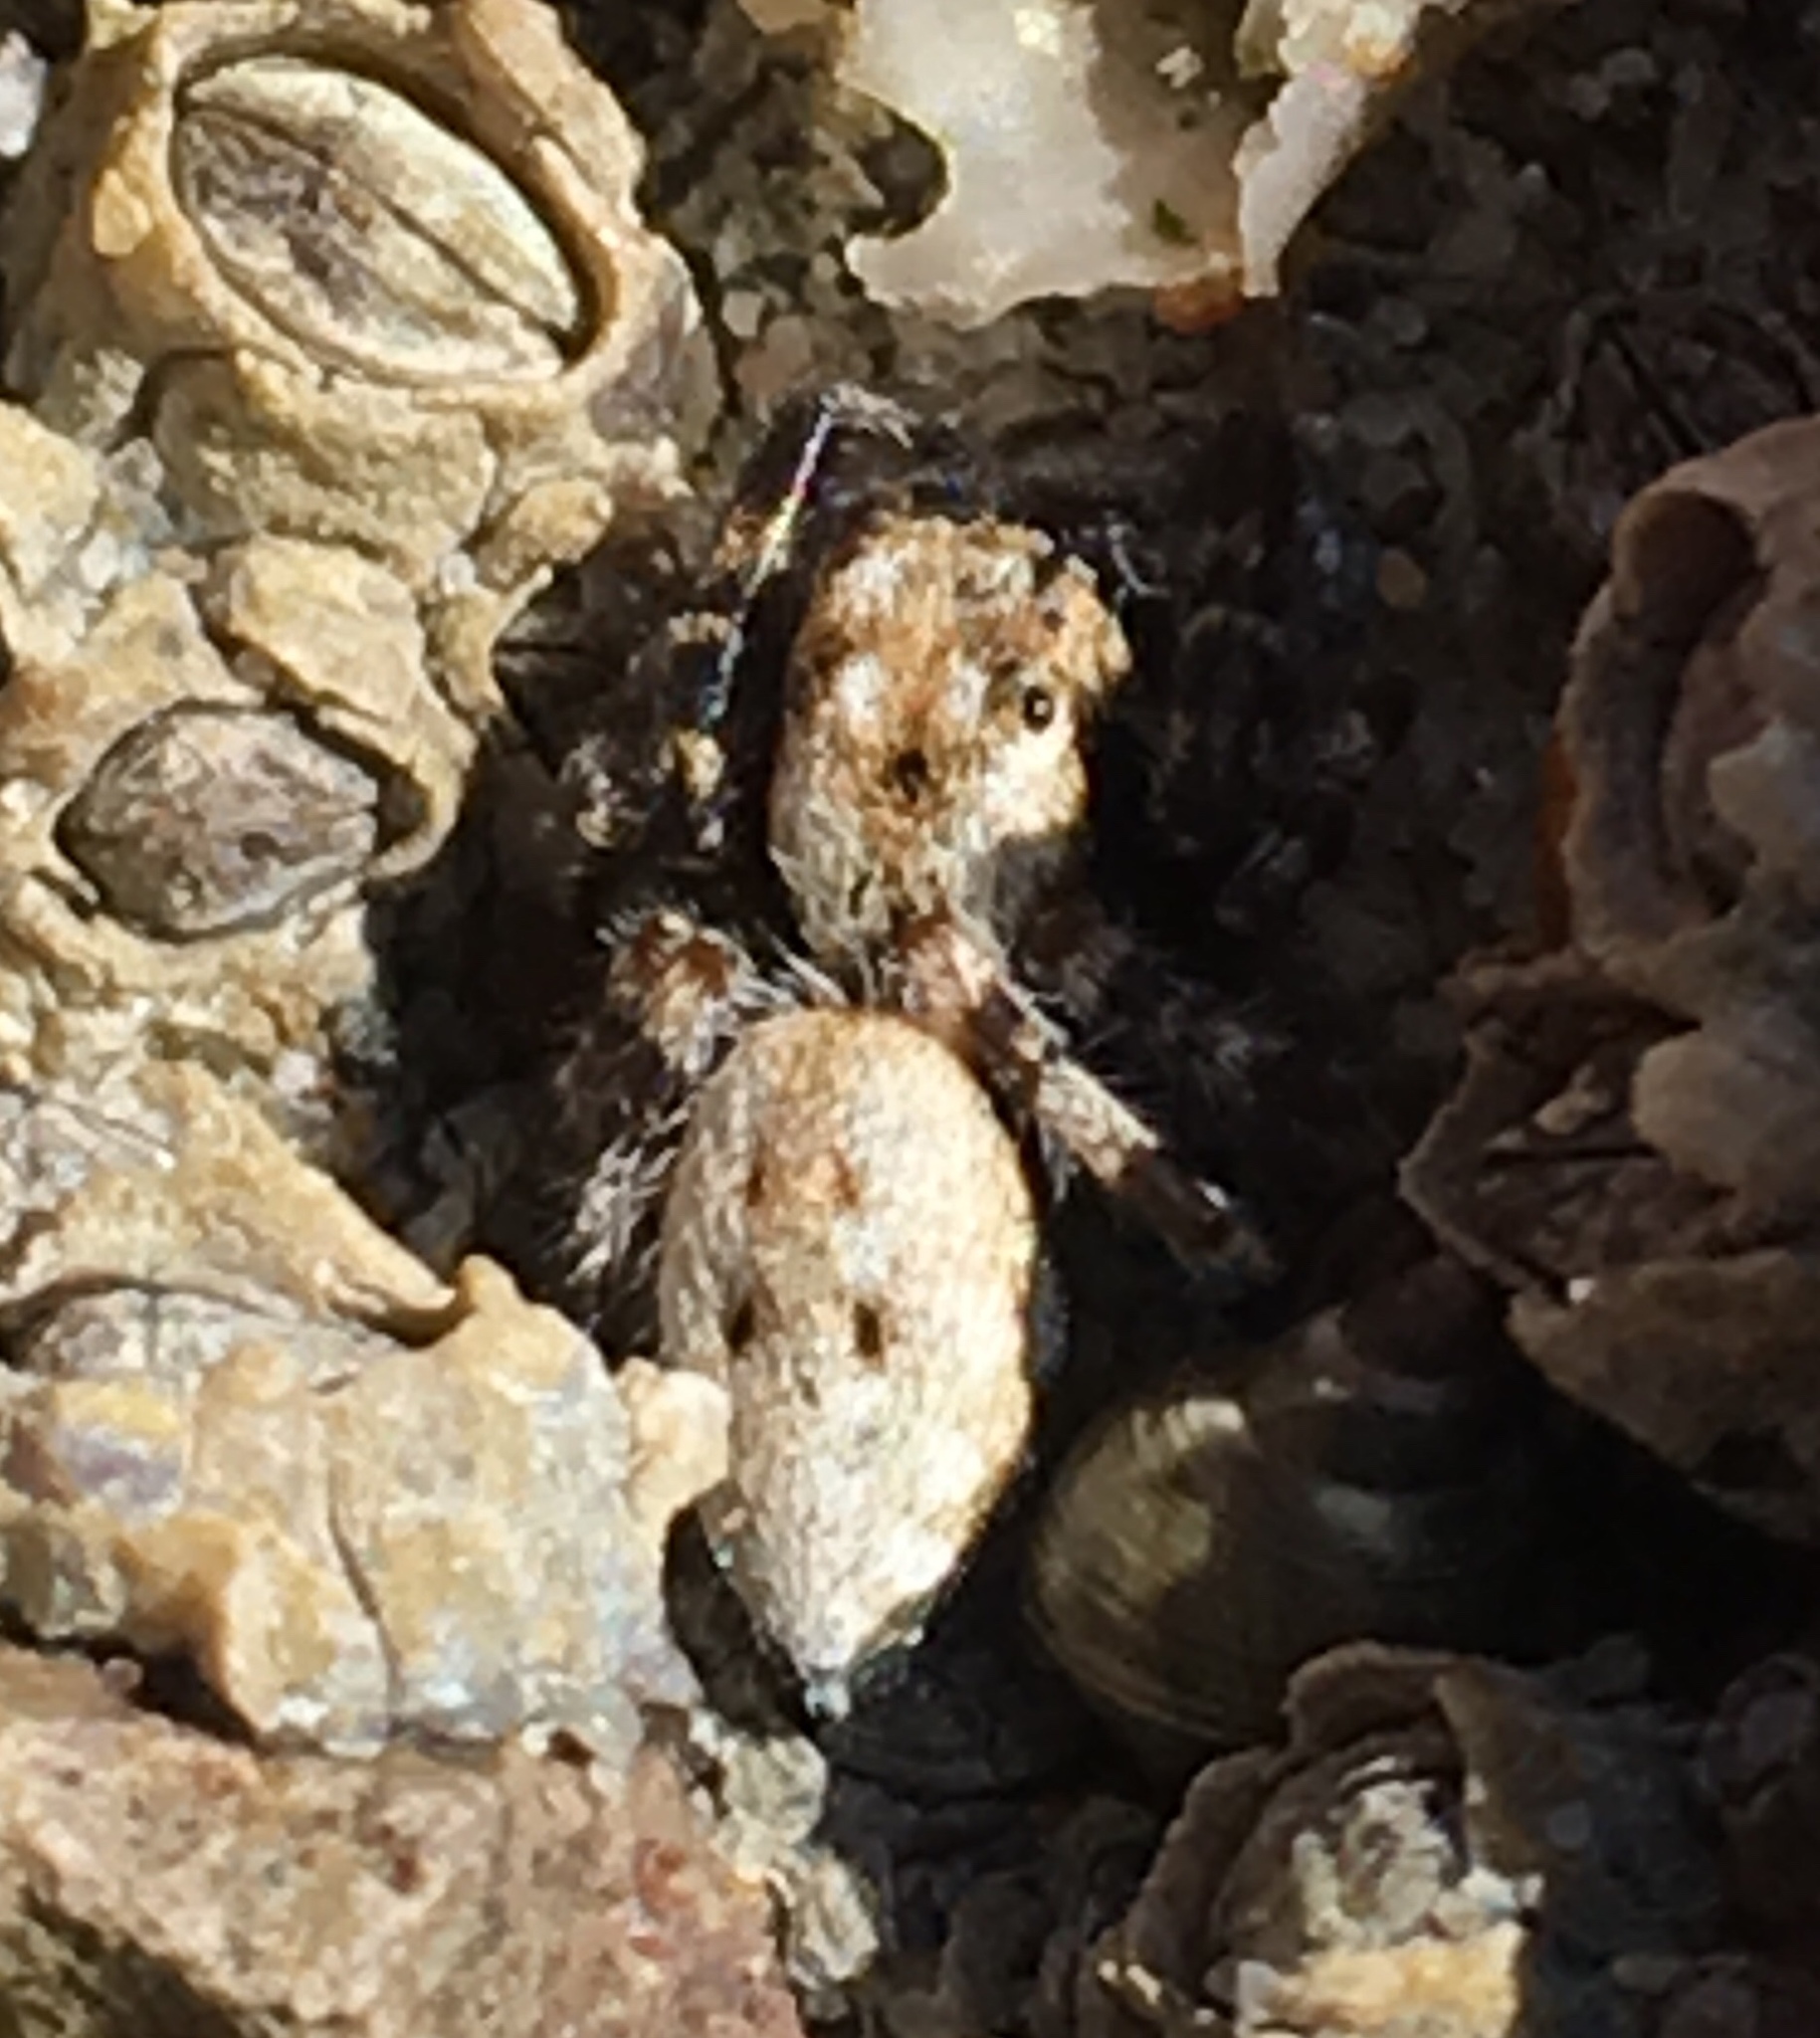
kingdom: Animalia
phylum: Arthropoda
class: Arachnida
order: Araneae
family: Salticidae
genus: Terralonus
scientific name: Terralonus californicus
